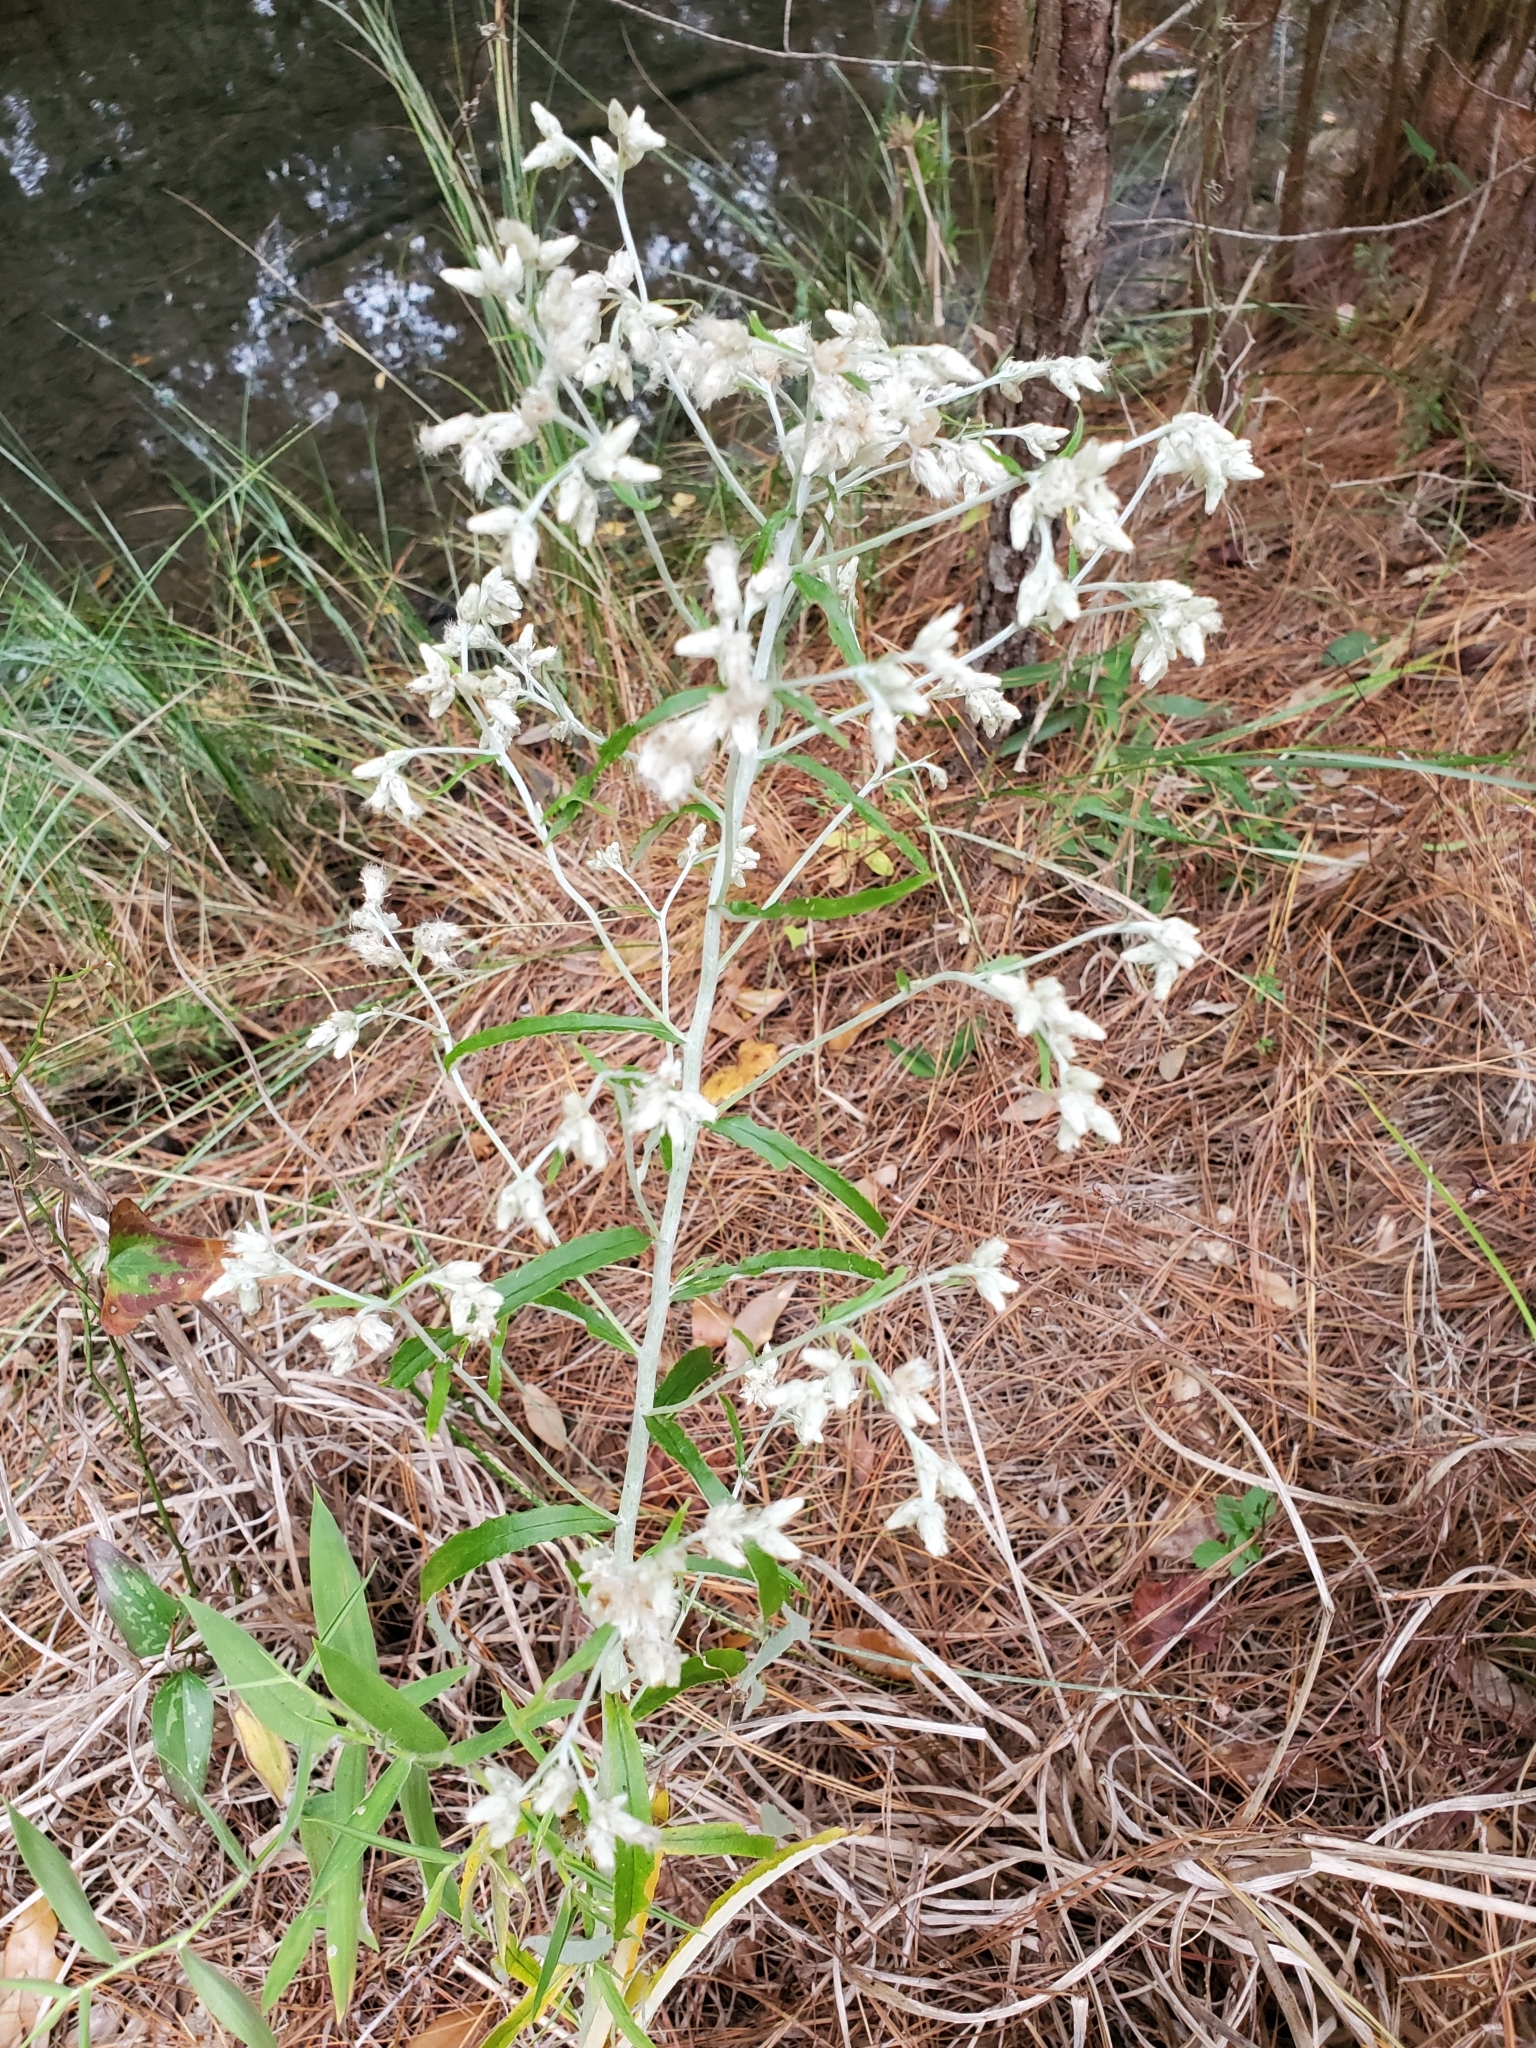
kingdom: Plantae
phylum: Tracheophyta
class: Magnoliopsida
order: Asterales
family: Asteraceae
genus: Pseudognaphalium
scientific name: Pseudognaphalium obtusifolium
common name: Eastern rabbit-tobacco
